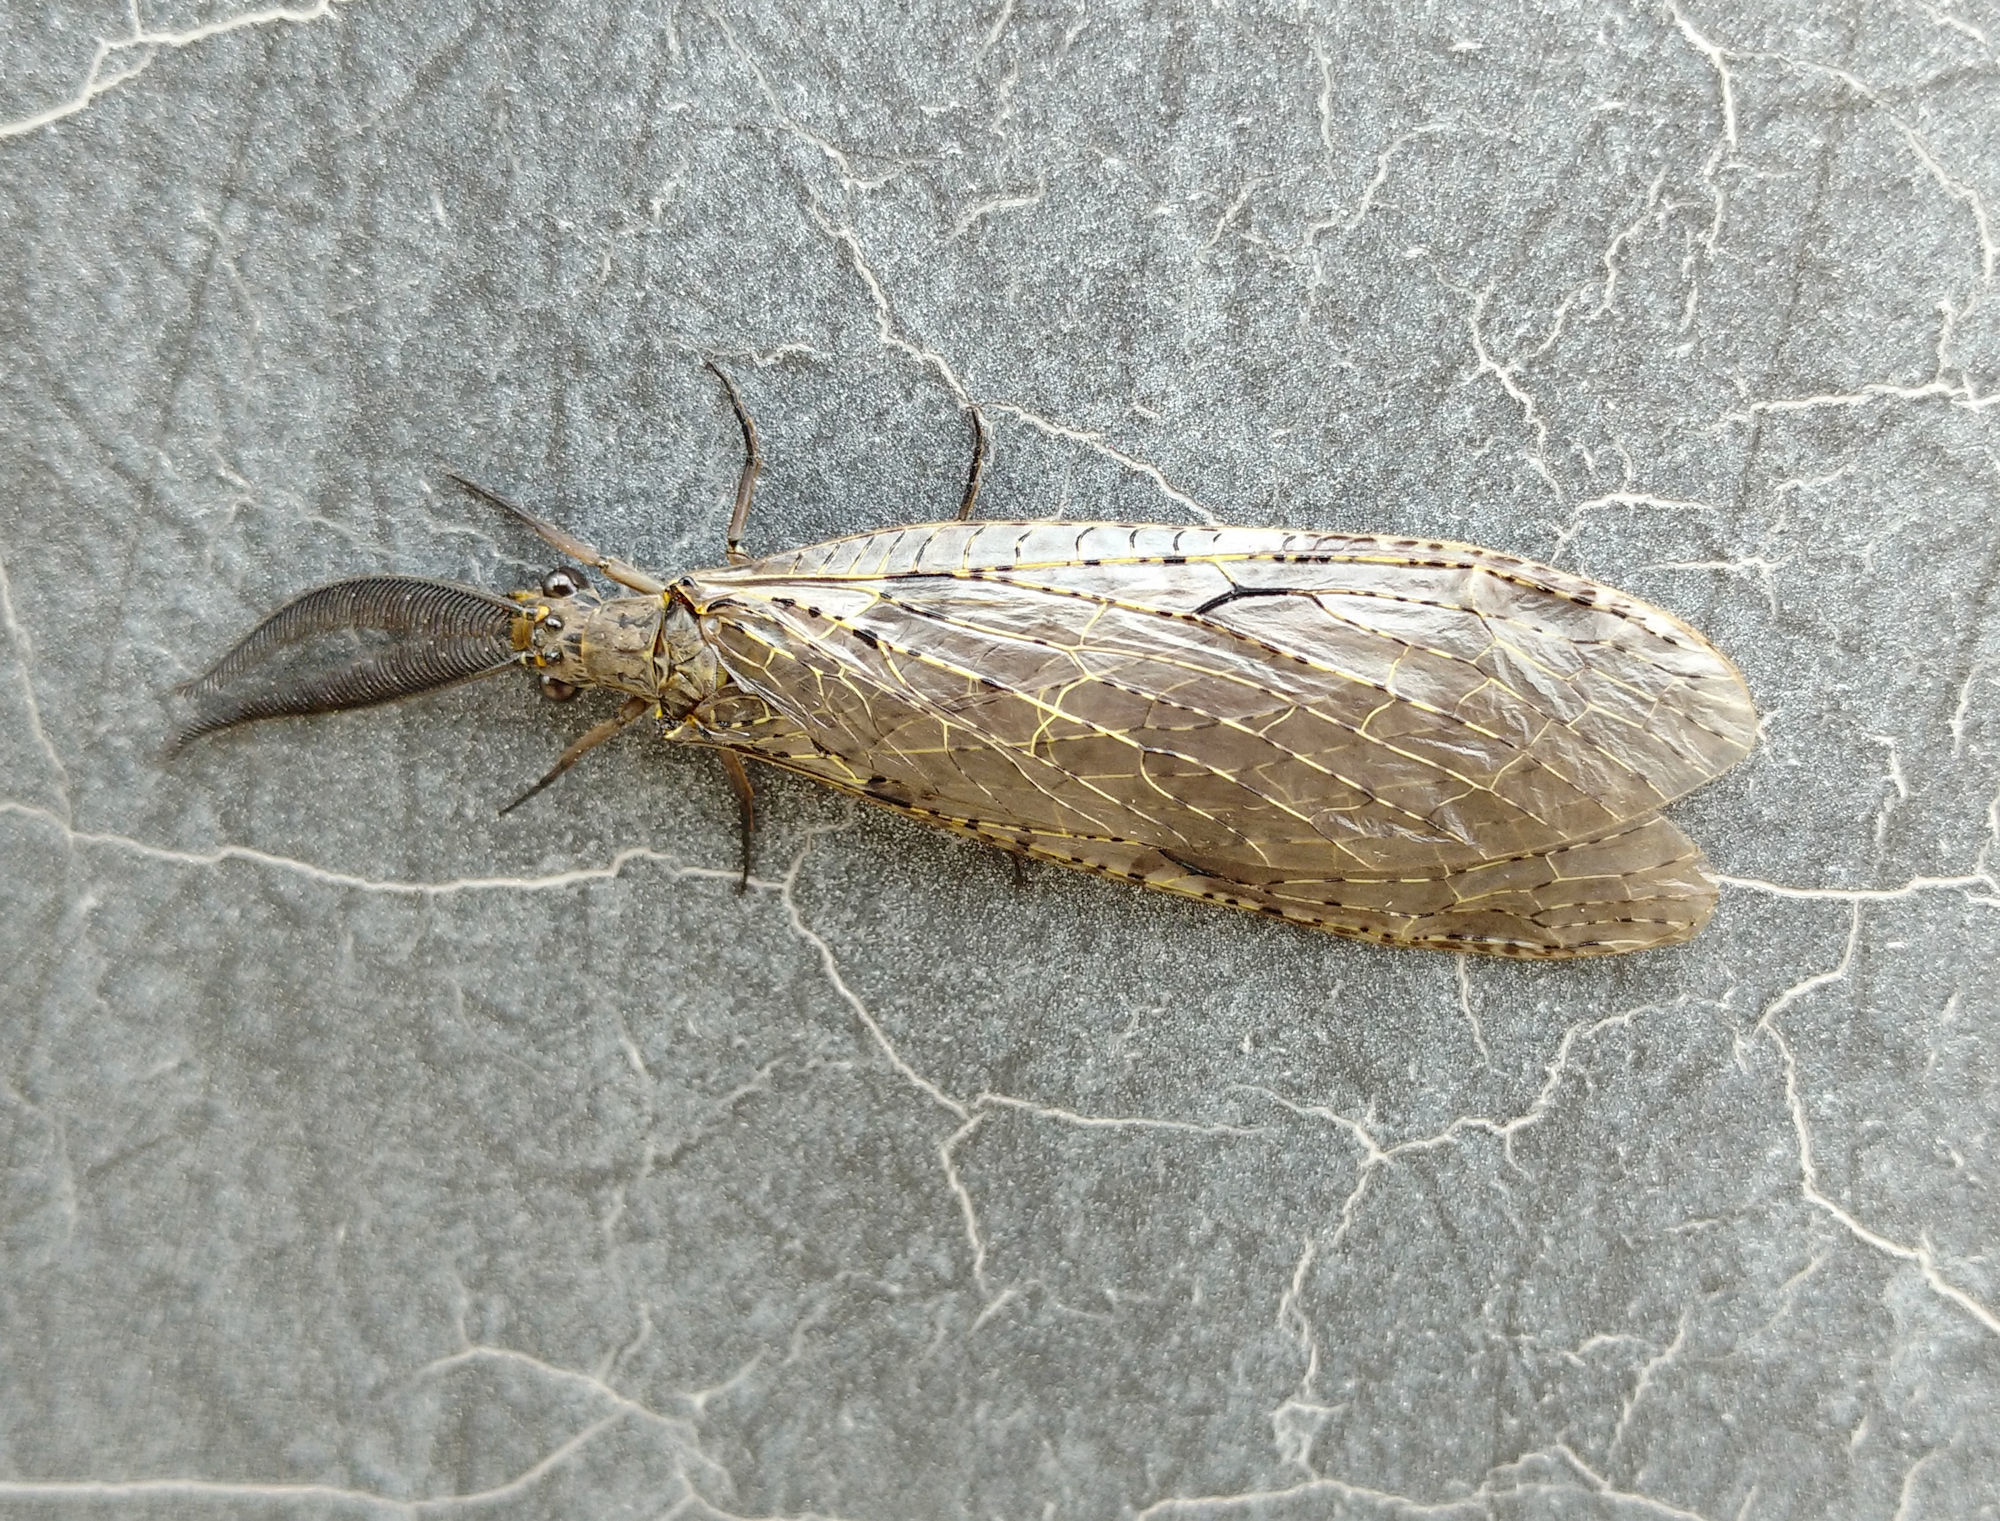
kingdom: Animalia
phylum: Arthropoda
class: Insecta
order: Megaloptera
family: Corydalidae
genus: Chauliodes
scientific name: Chauliodes rastricornis
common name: Spring fishfly
